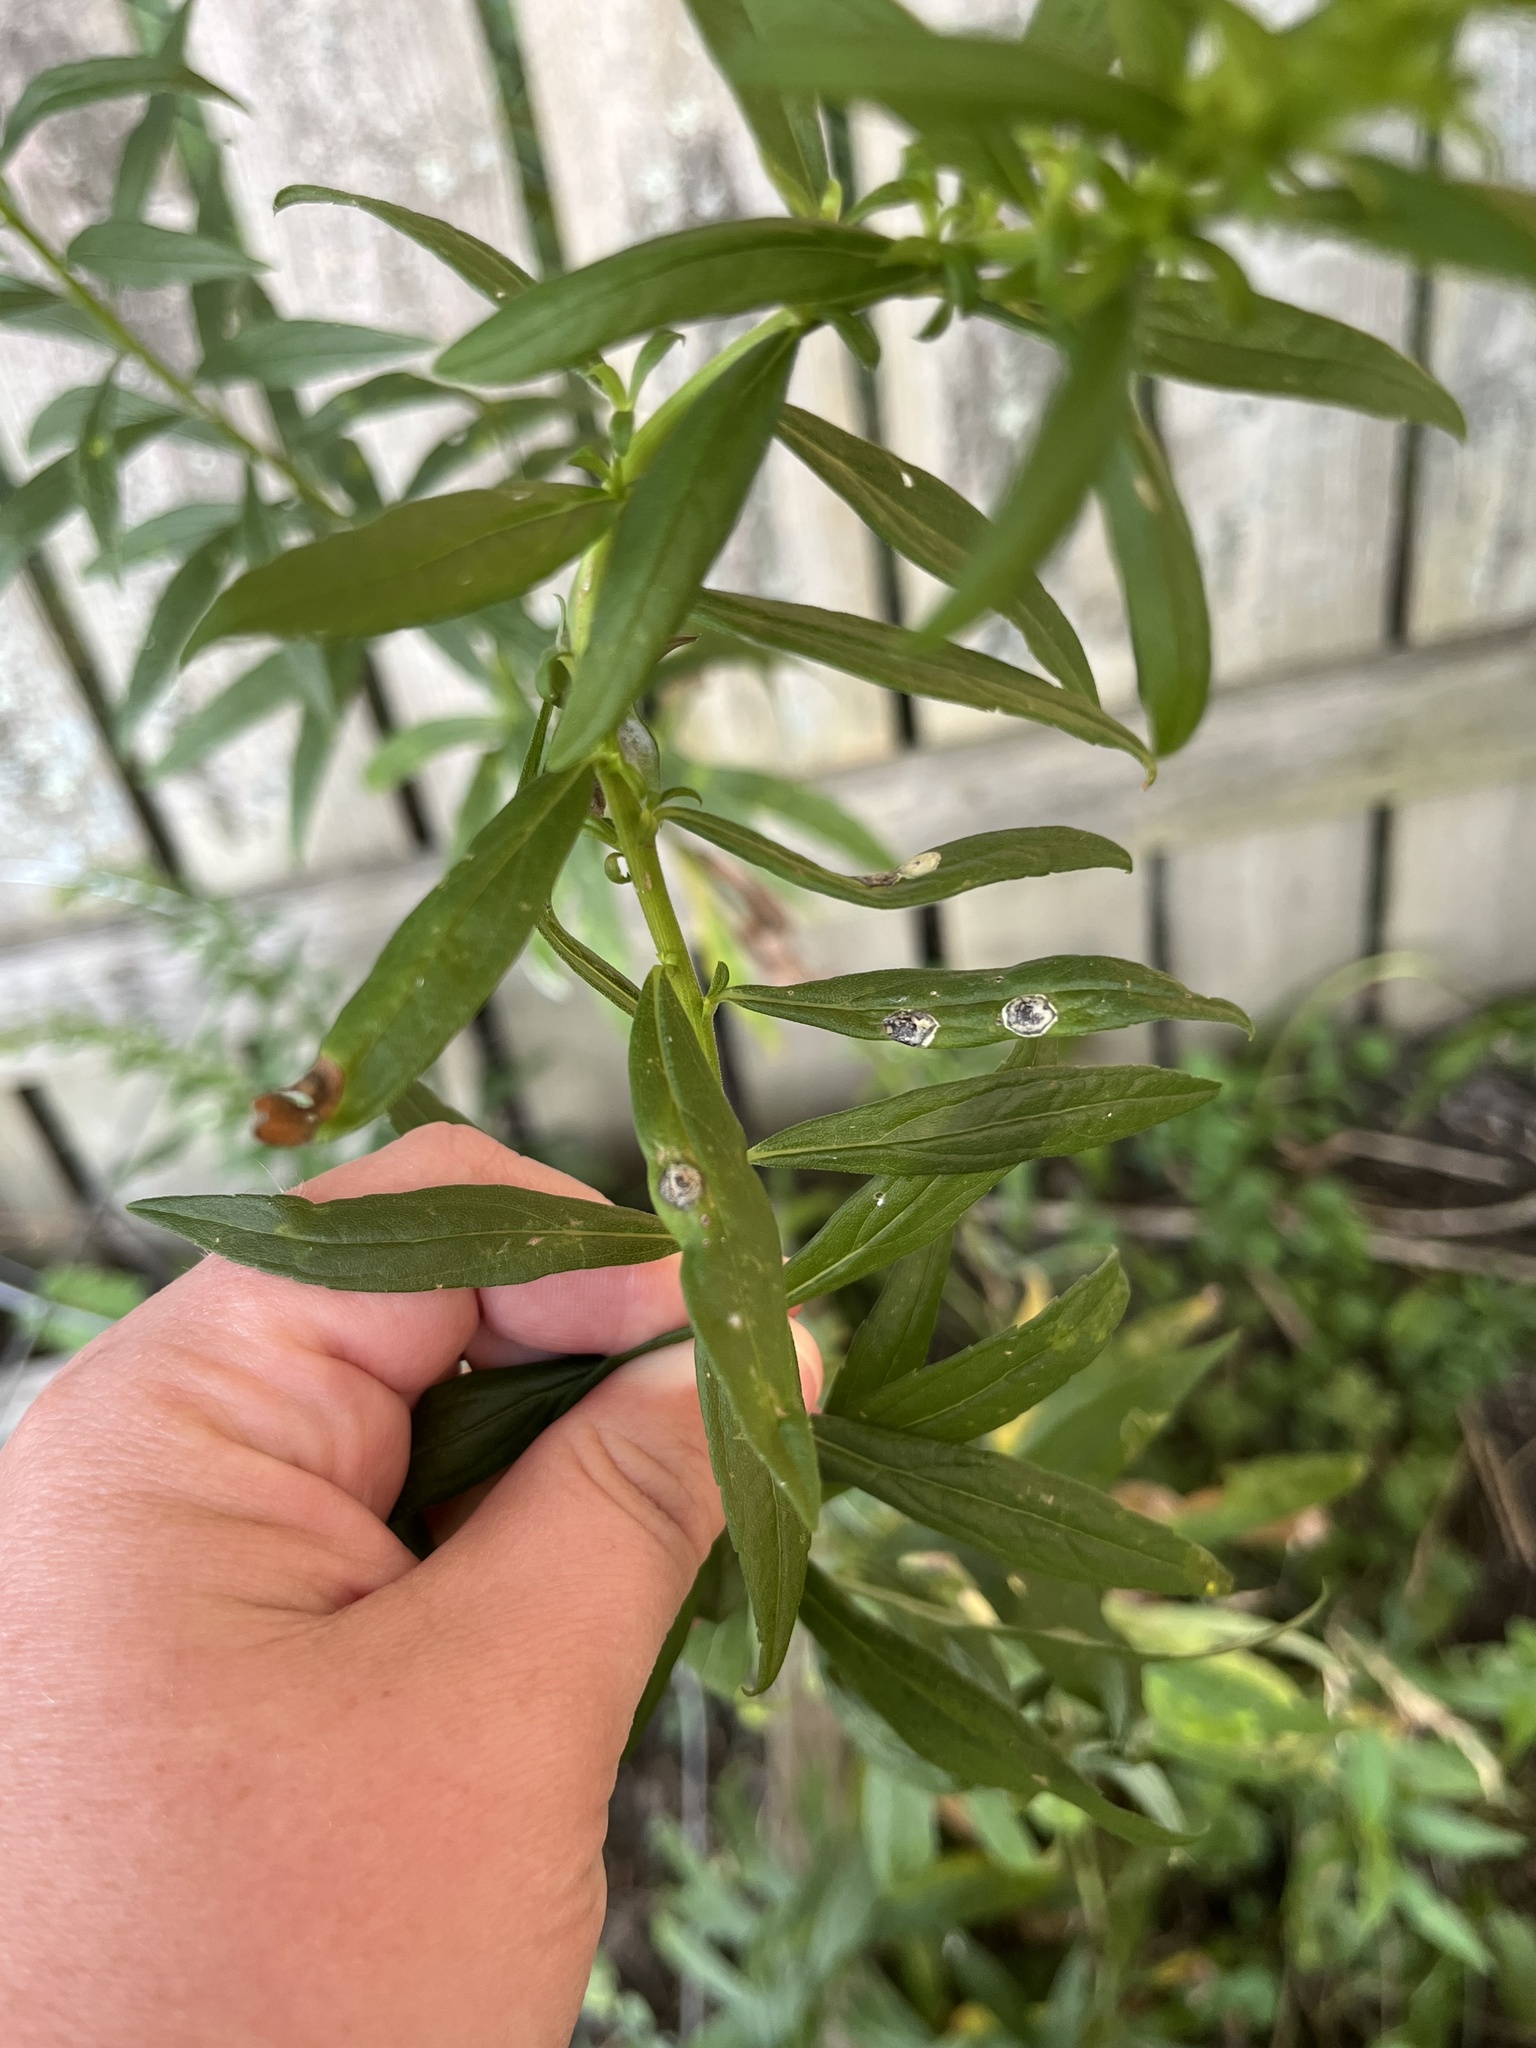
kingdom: Animalia
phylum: Arthropoda
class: Insecta
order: Diptera
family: Cecidomyiidae
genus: Asteromyia
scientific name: Asteromyia carbonifera
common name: Carbonifera goldenrod gall midge
